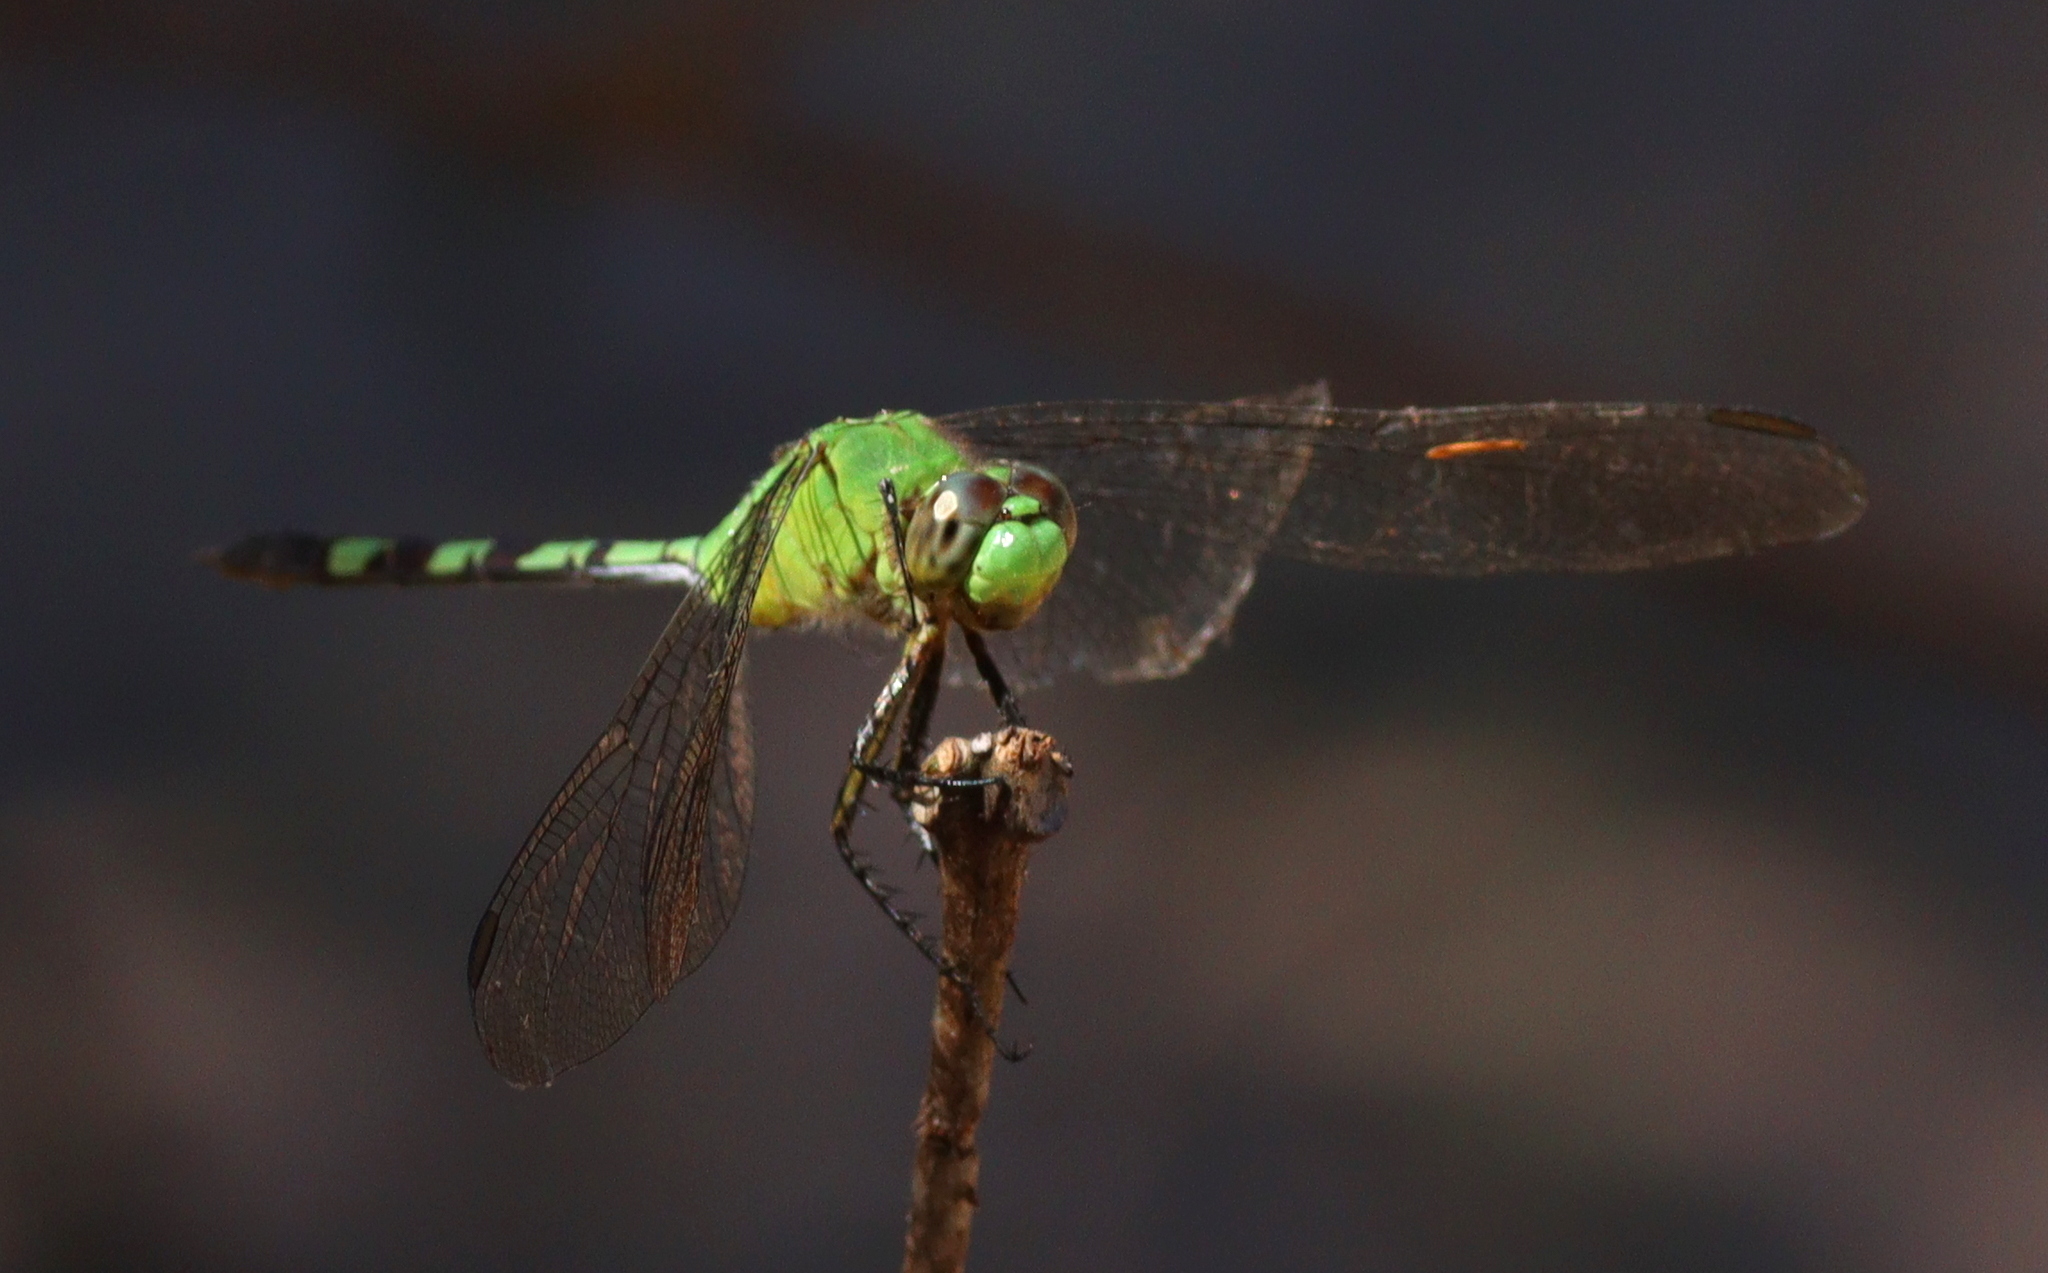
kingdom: Animalia
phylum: Arthropoda
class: Insecta
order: Odonata
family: Libellulidae
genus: Erythemis
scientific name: Erythemis vesiculosa
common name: Great pondhawk
